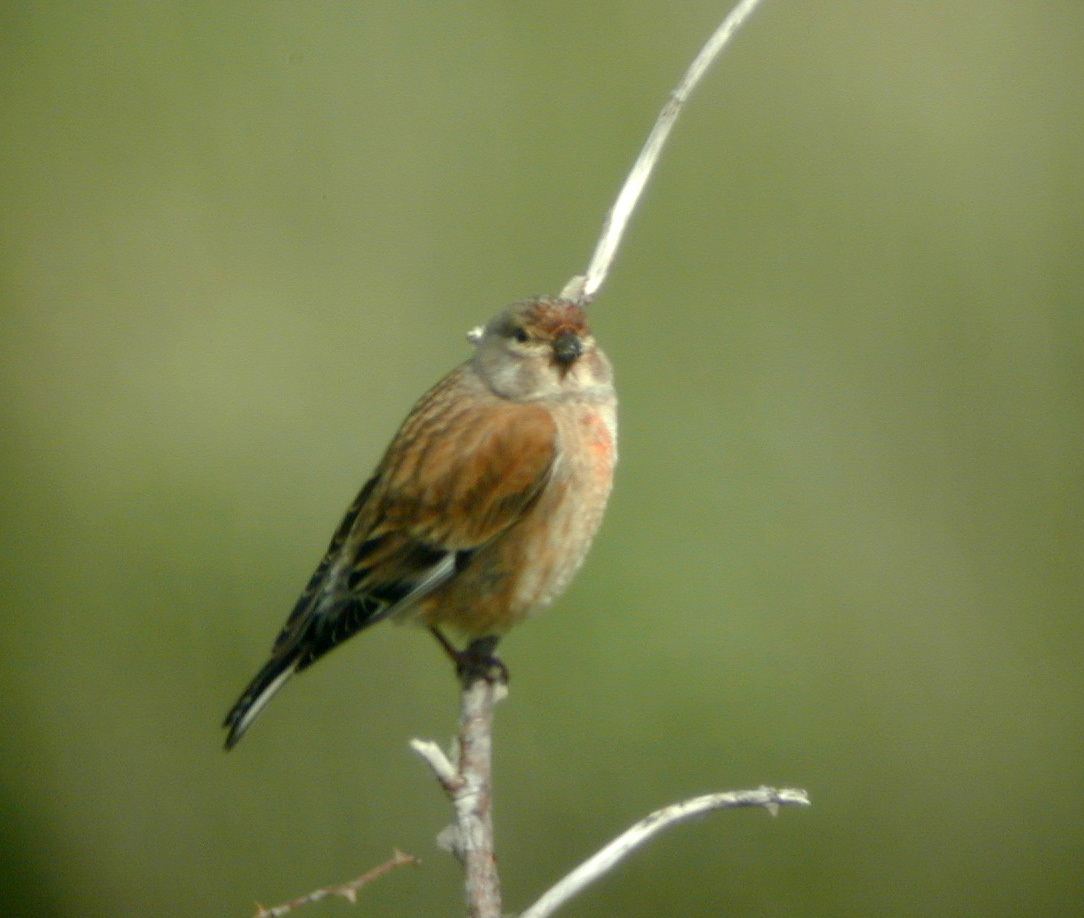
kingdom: Animalia
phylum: Chordata
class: Aves
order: Passeriformes
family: Fringillidae
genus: Linaria
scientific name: Linaria cannabina
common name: Common linnet
